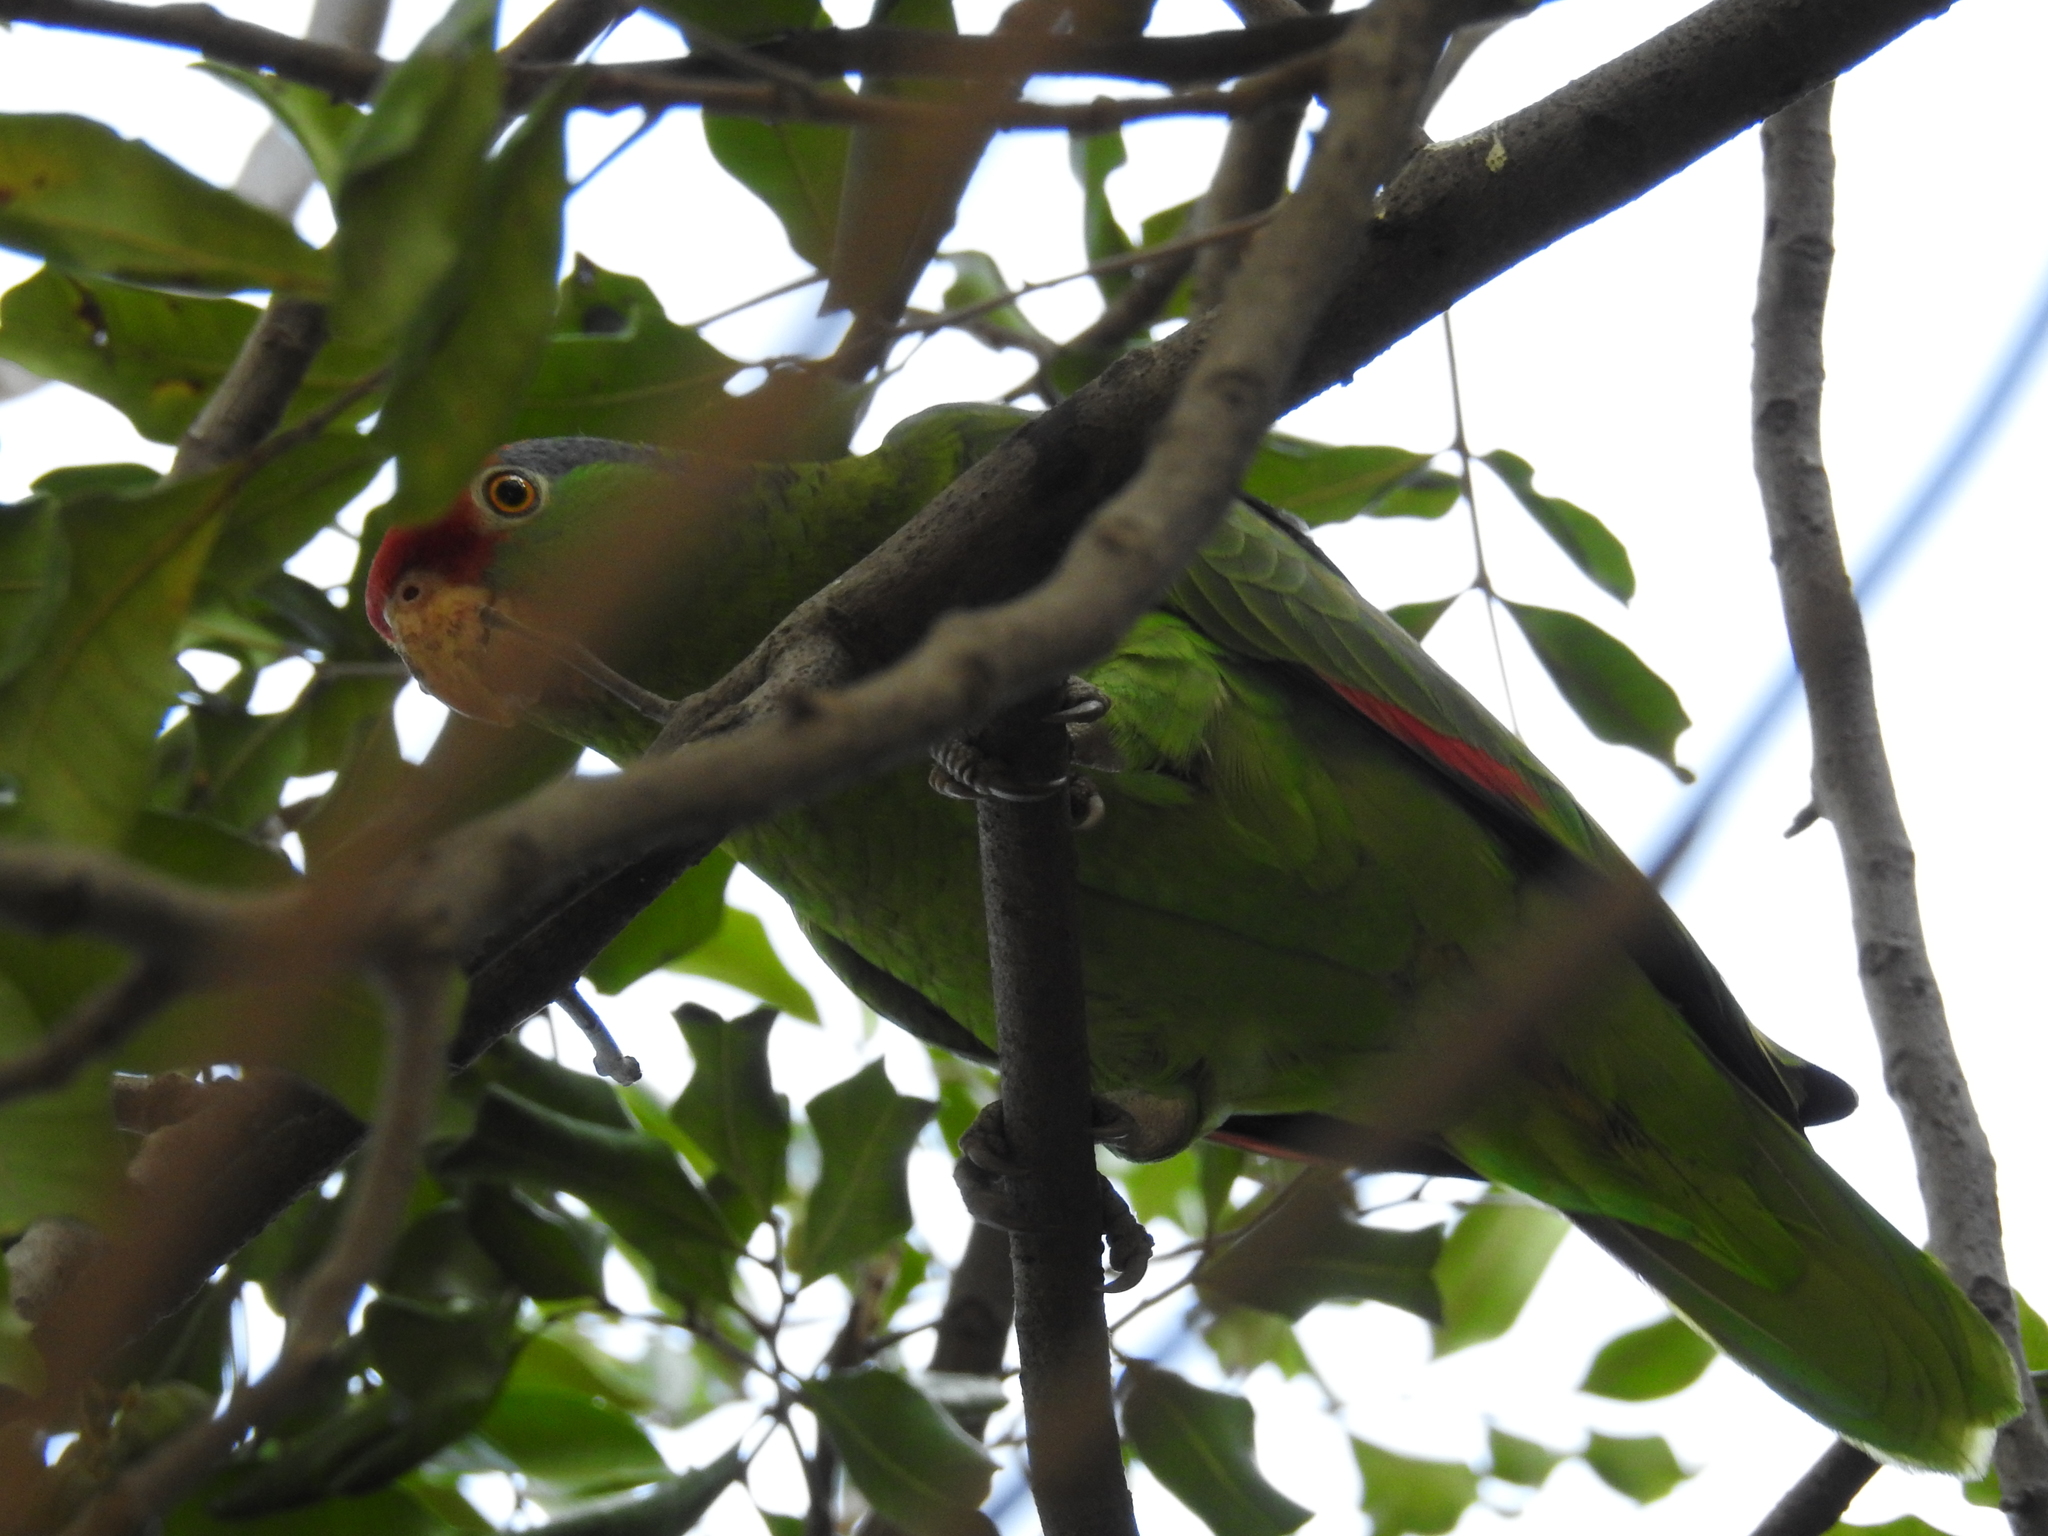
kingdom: Animalia
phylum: Chordata
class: Aves
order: Psittaciformes
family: Psittacidae
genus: Amazona
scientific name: Amazona viridigenalis
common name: Red-crowned amazon
